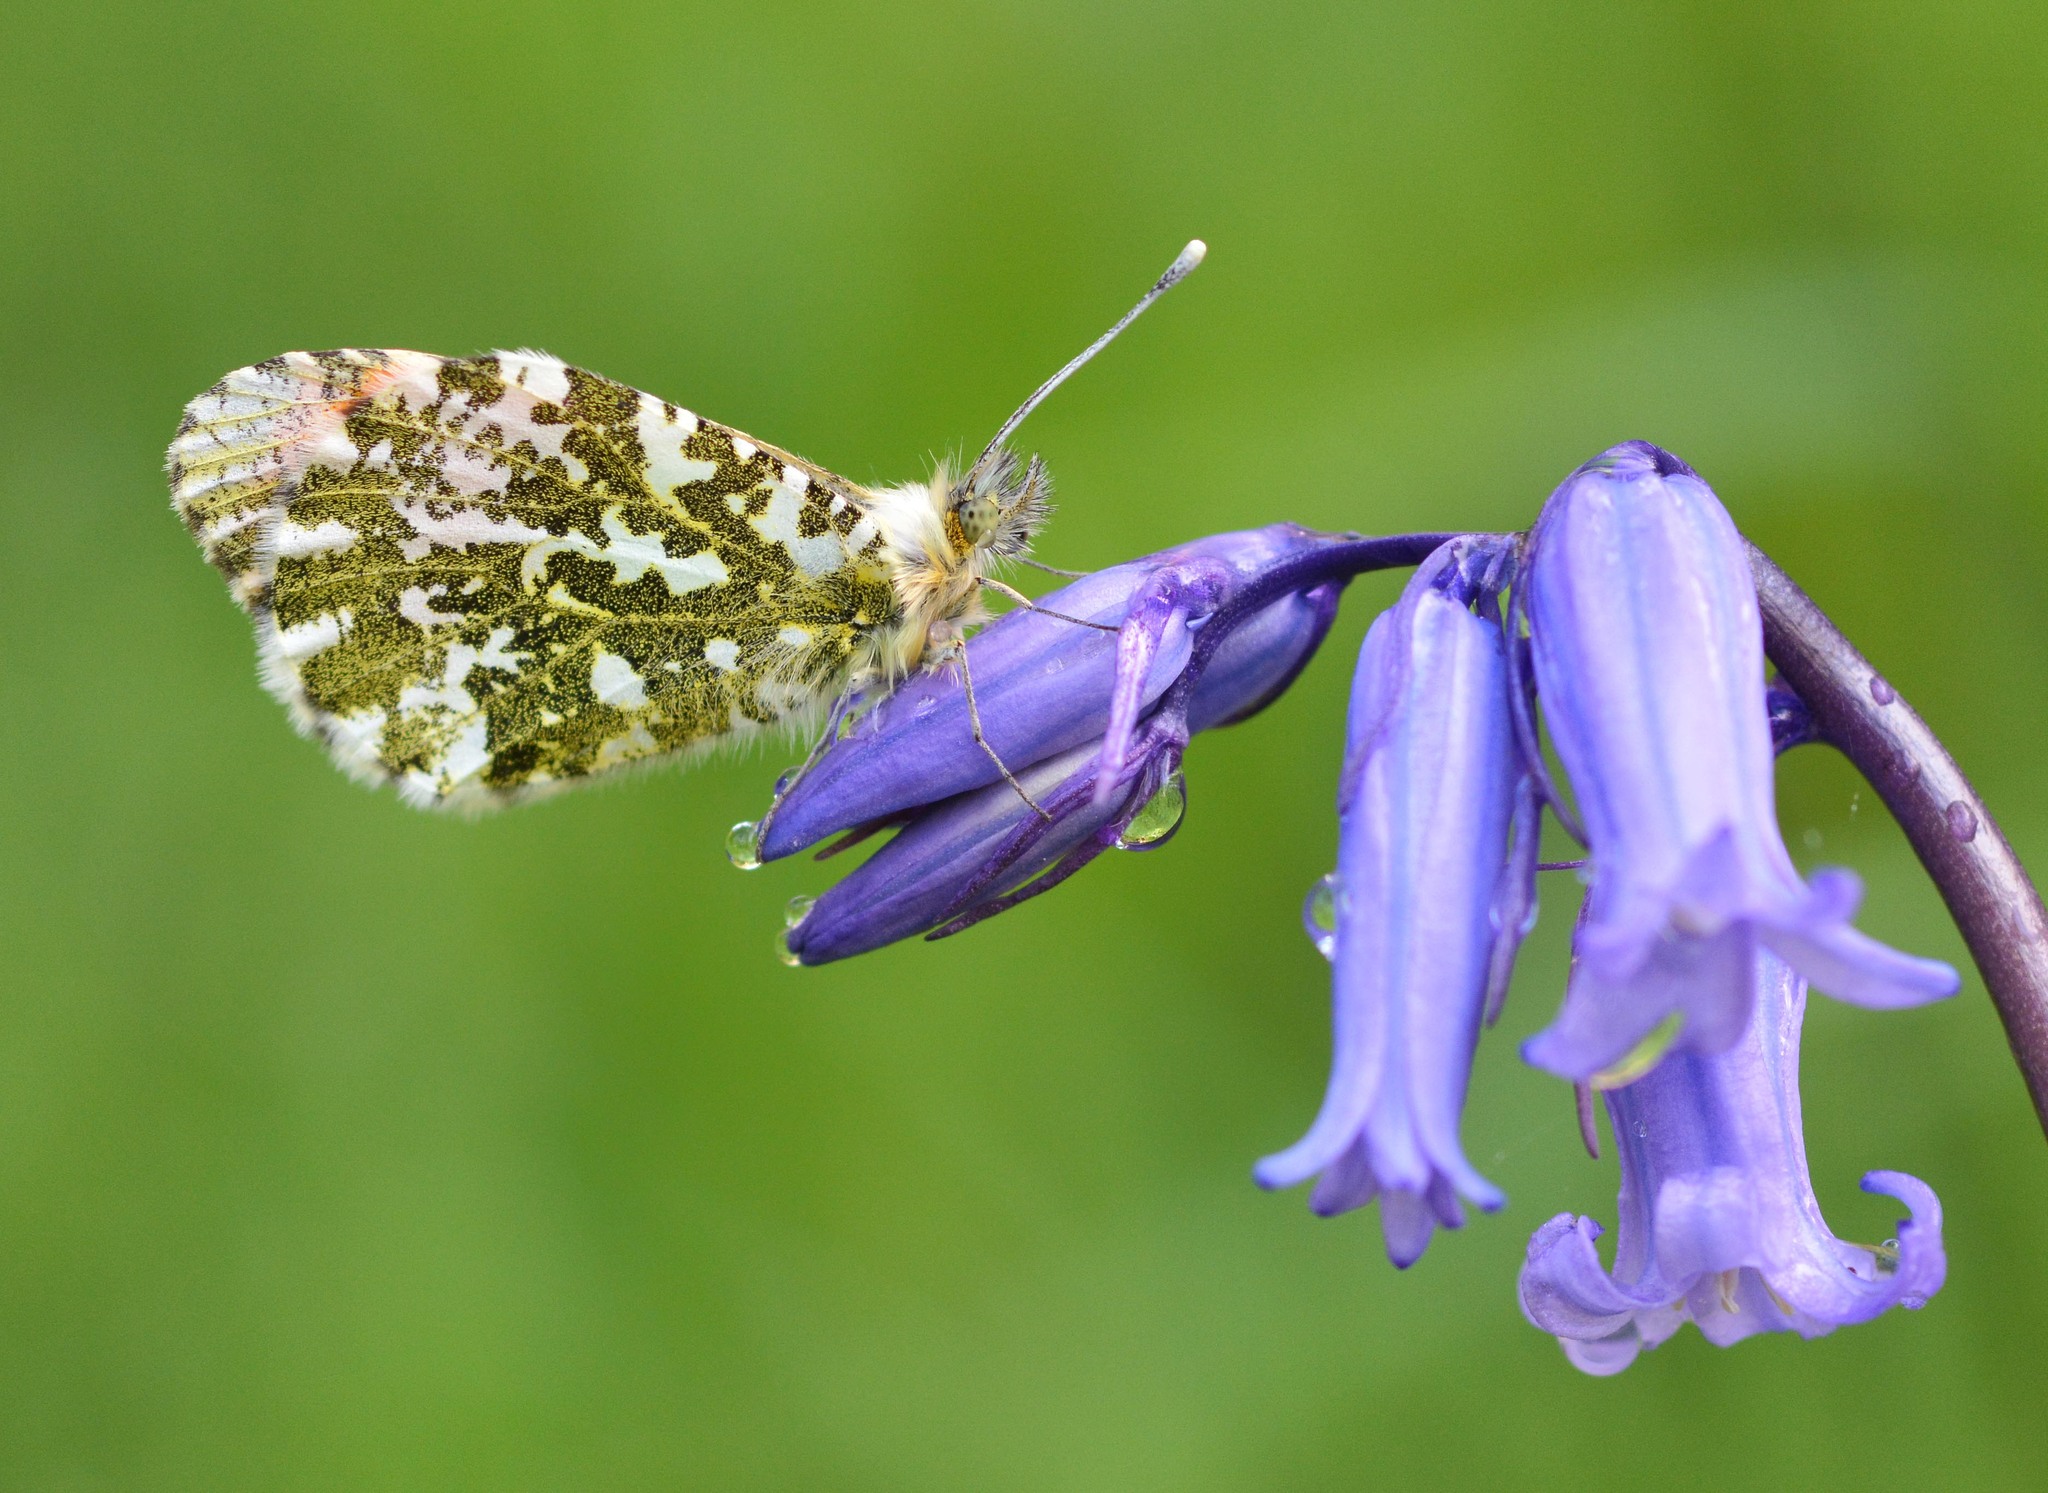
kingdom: Animalia
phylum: Arthropoda
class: Insecta
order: Lepidoptera
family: Pieridae
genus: Anthocharis
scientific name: Anthocharis cardamines
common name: Orange-tip
